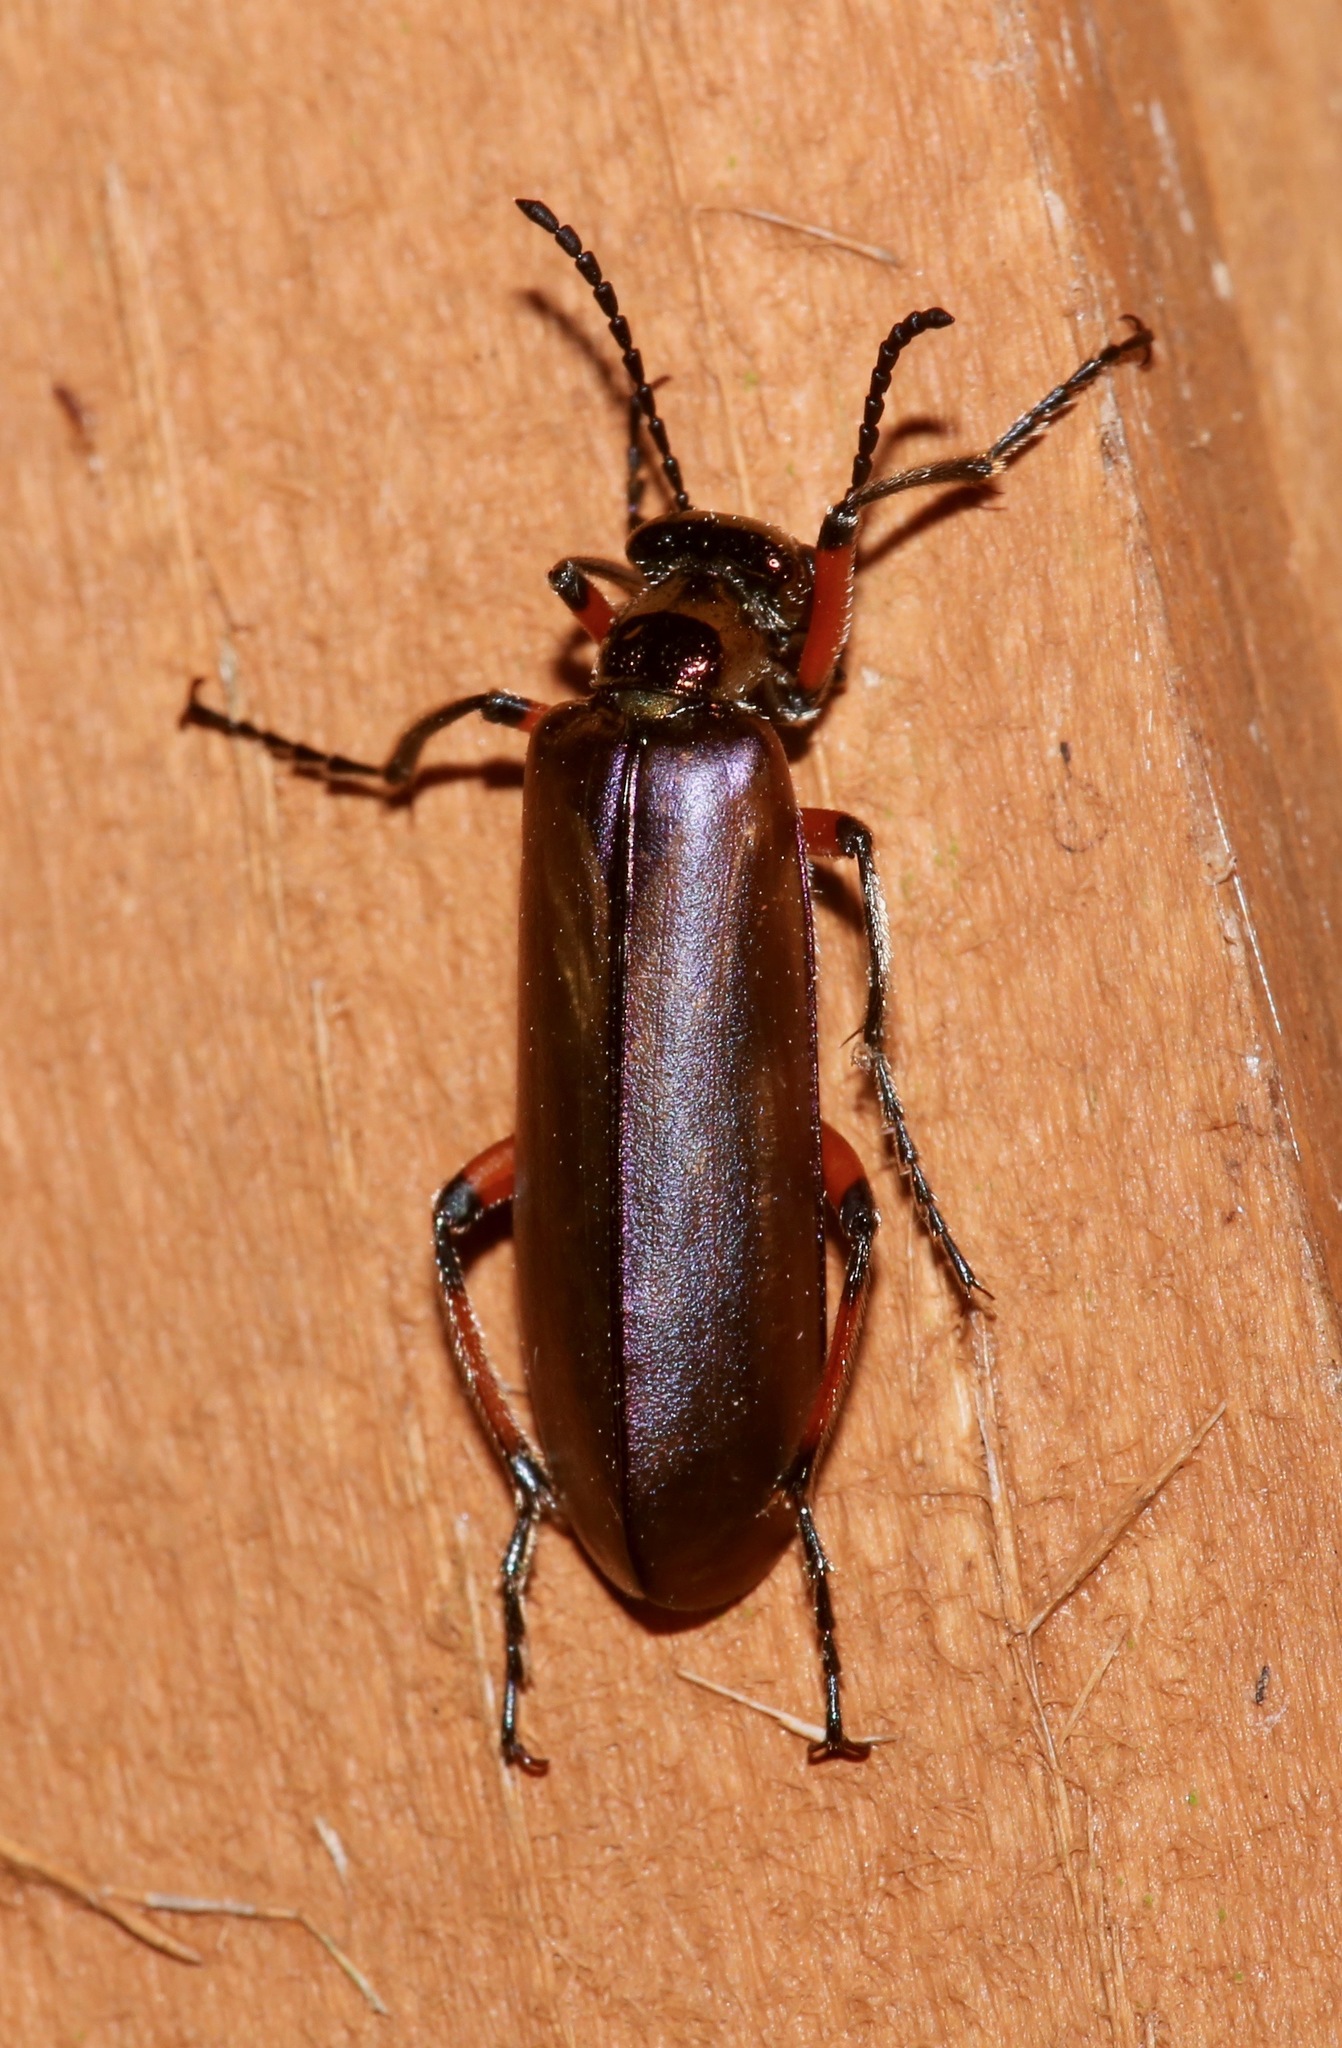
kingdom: Animalia
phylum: Arthropoda
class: Insecta
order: Coleoptera
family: Meloidae
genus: Lytta
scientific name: Lytta polita
